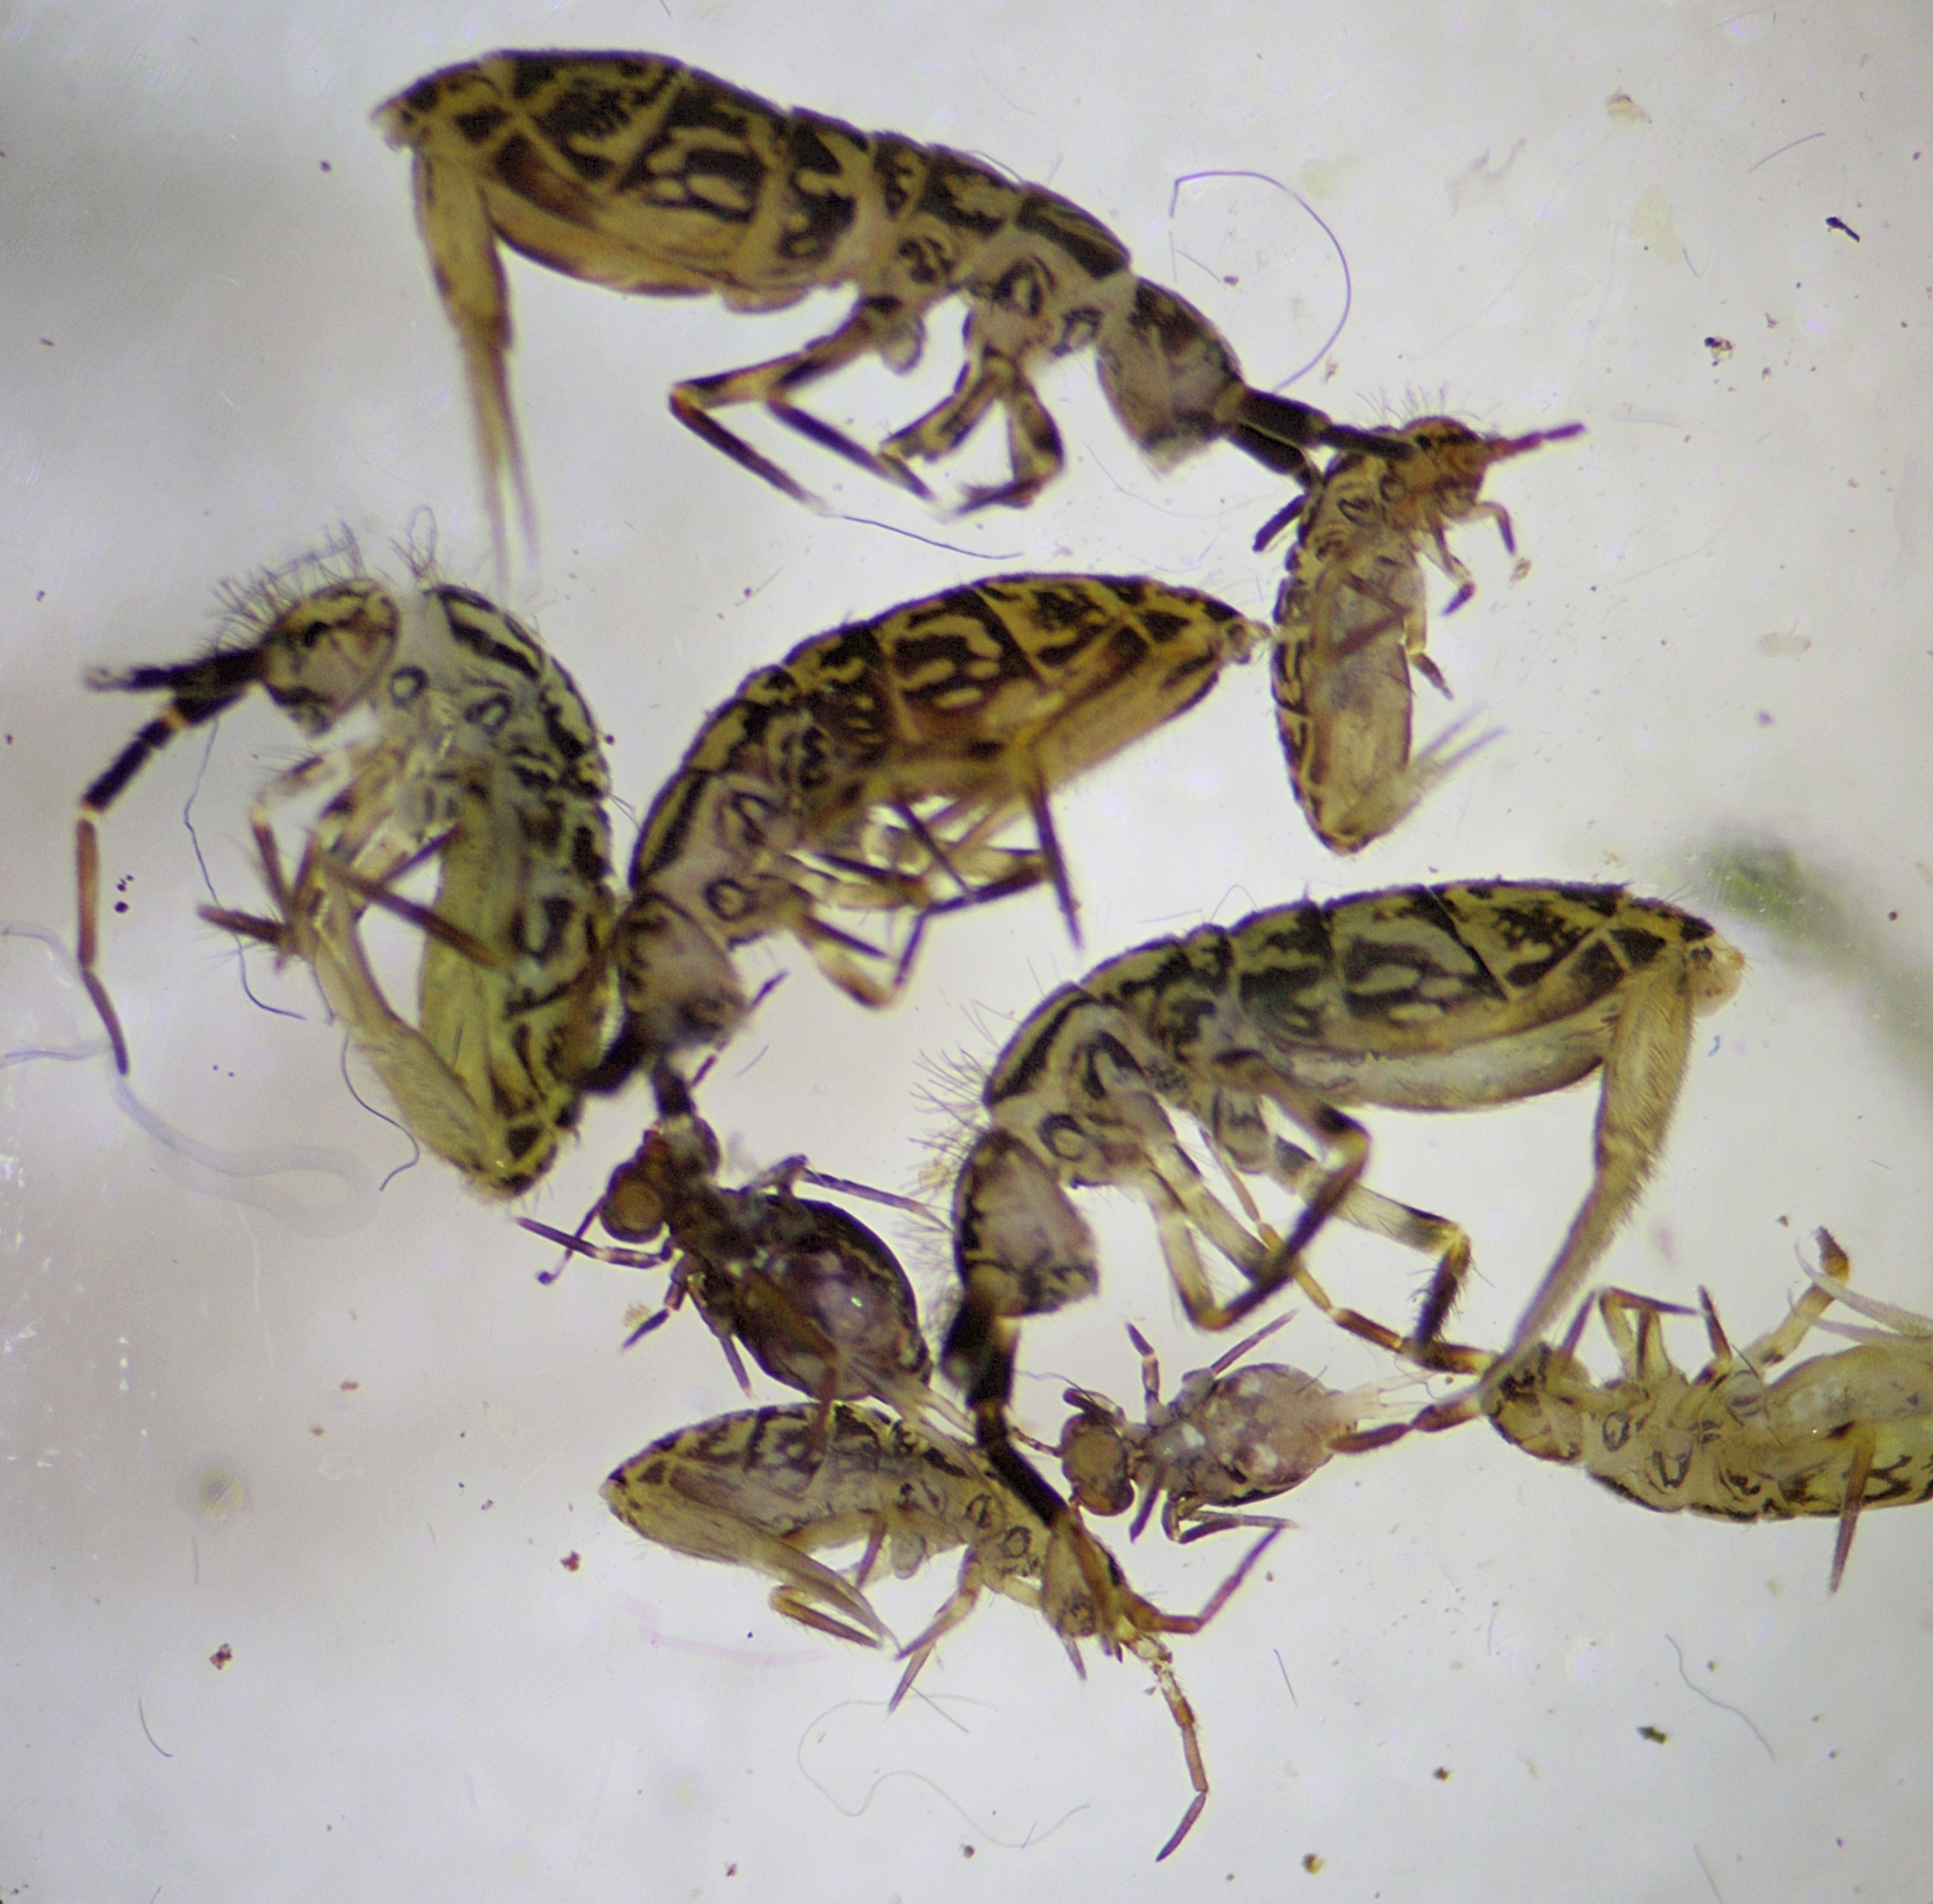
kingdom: Animalia
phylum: Arthropoda
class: Collembola
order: Entomobryomorpha
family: Orchesellidae
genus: Orchesella
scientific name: Orchesella villosa
